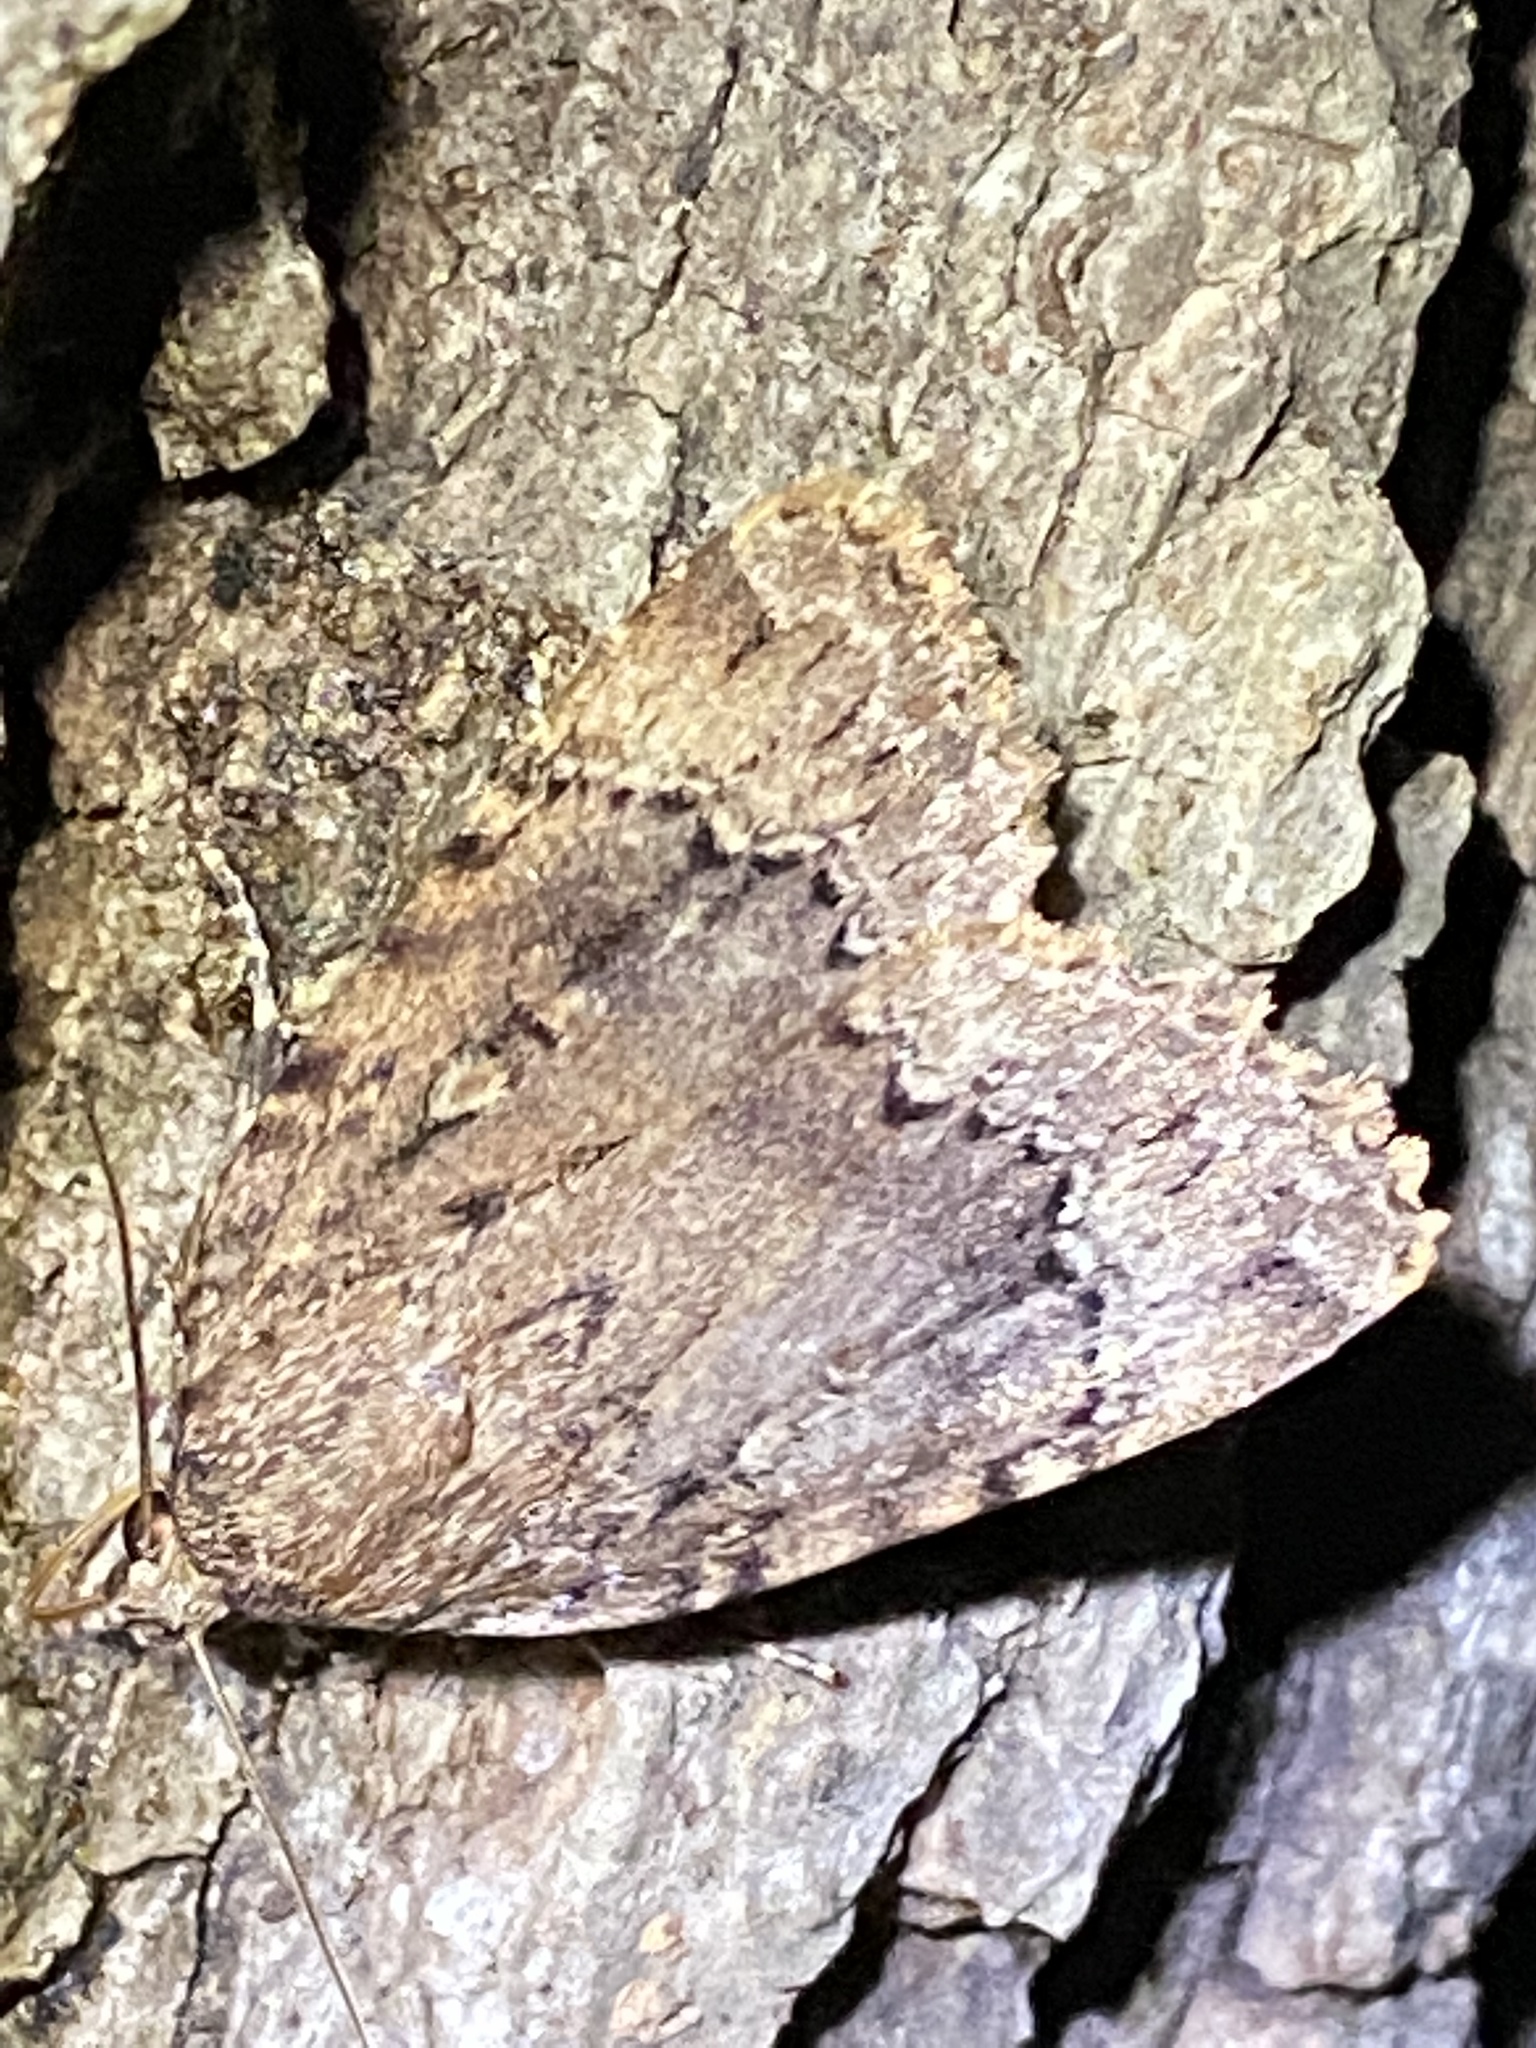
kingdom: Animalia
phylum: Arthropoda
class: Insecta
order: Lepidoptera
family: Noctuidae
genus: Amphipyra
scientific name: Amphipyra pyramidoides
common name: American copper underwing
